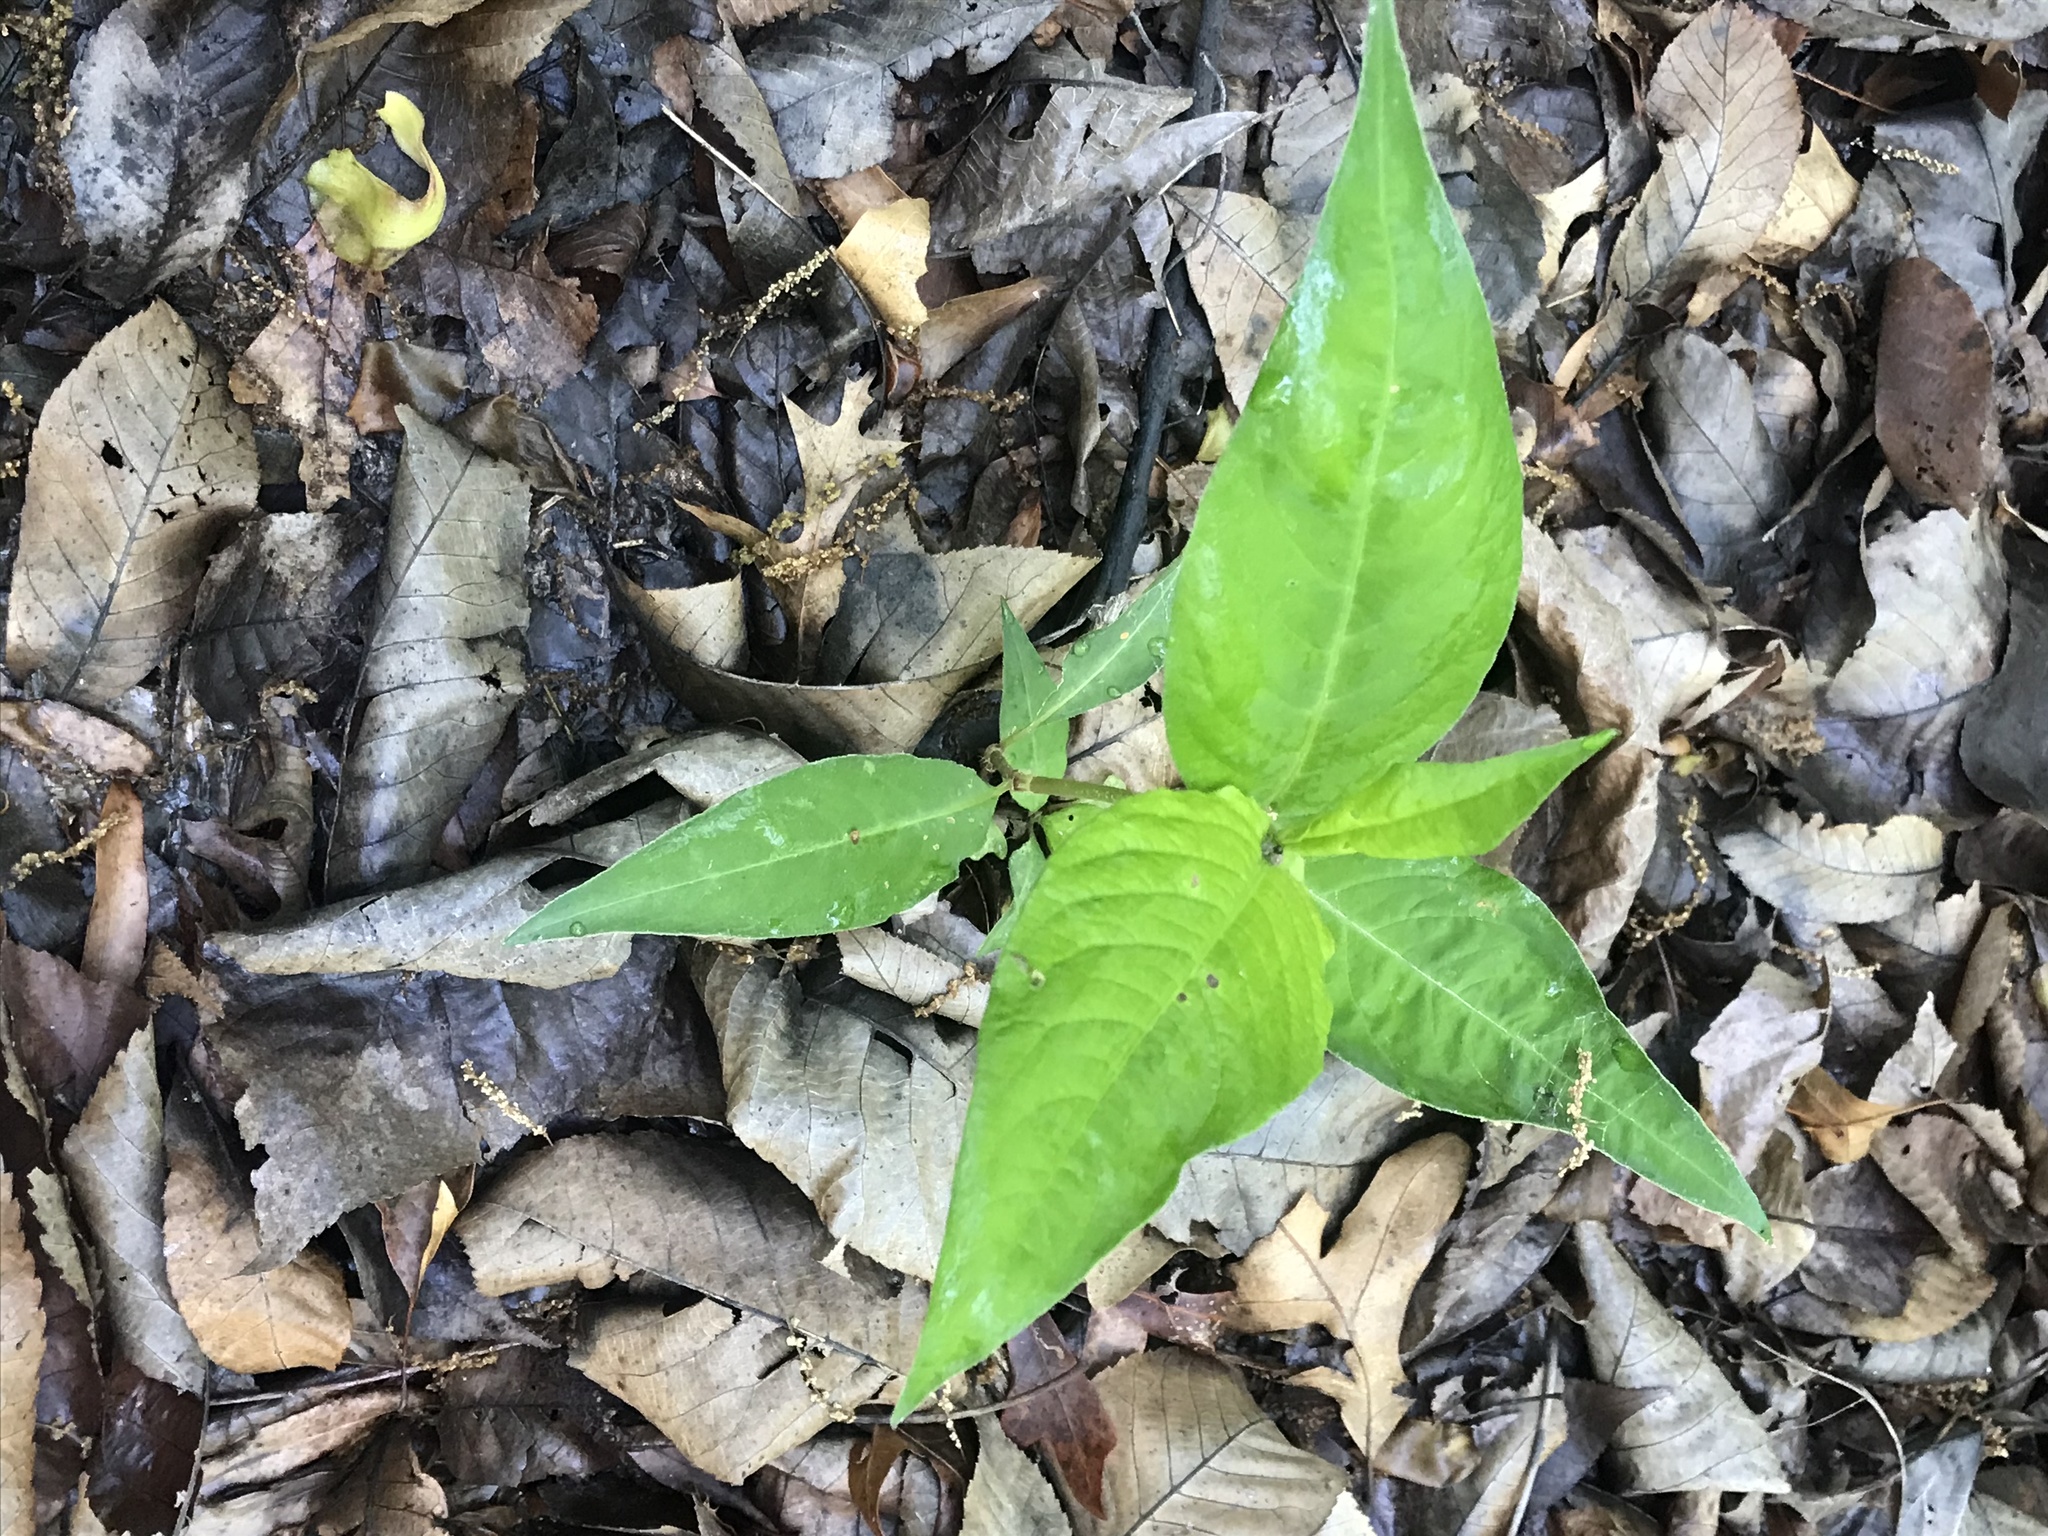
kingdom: Plantae
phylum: Tracheophyta
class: Magnoliopsida
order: Caryophyllales
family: Polygonaceae
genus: Persicaria
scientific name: Persicaria virginiana
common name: Jumpseed
